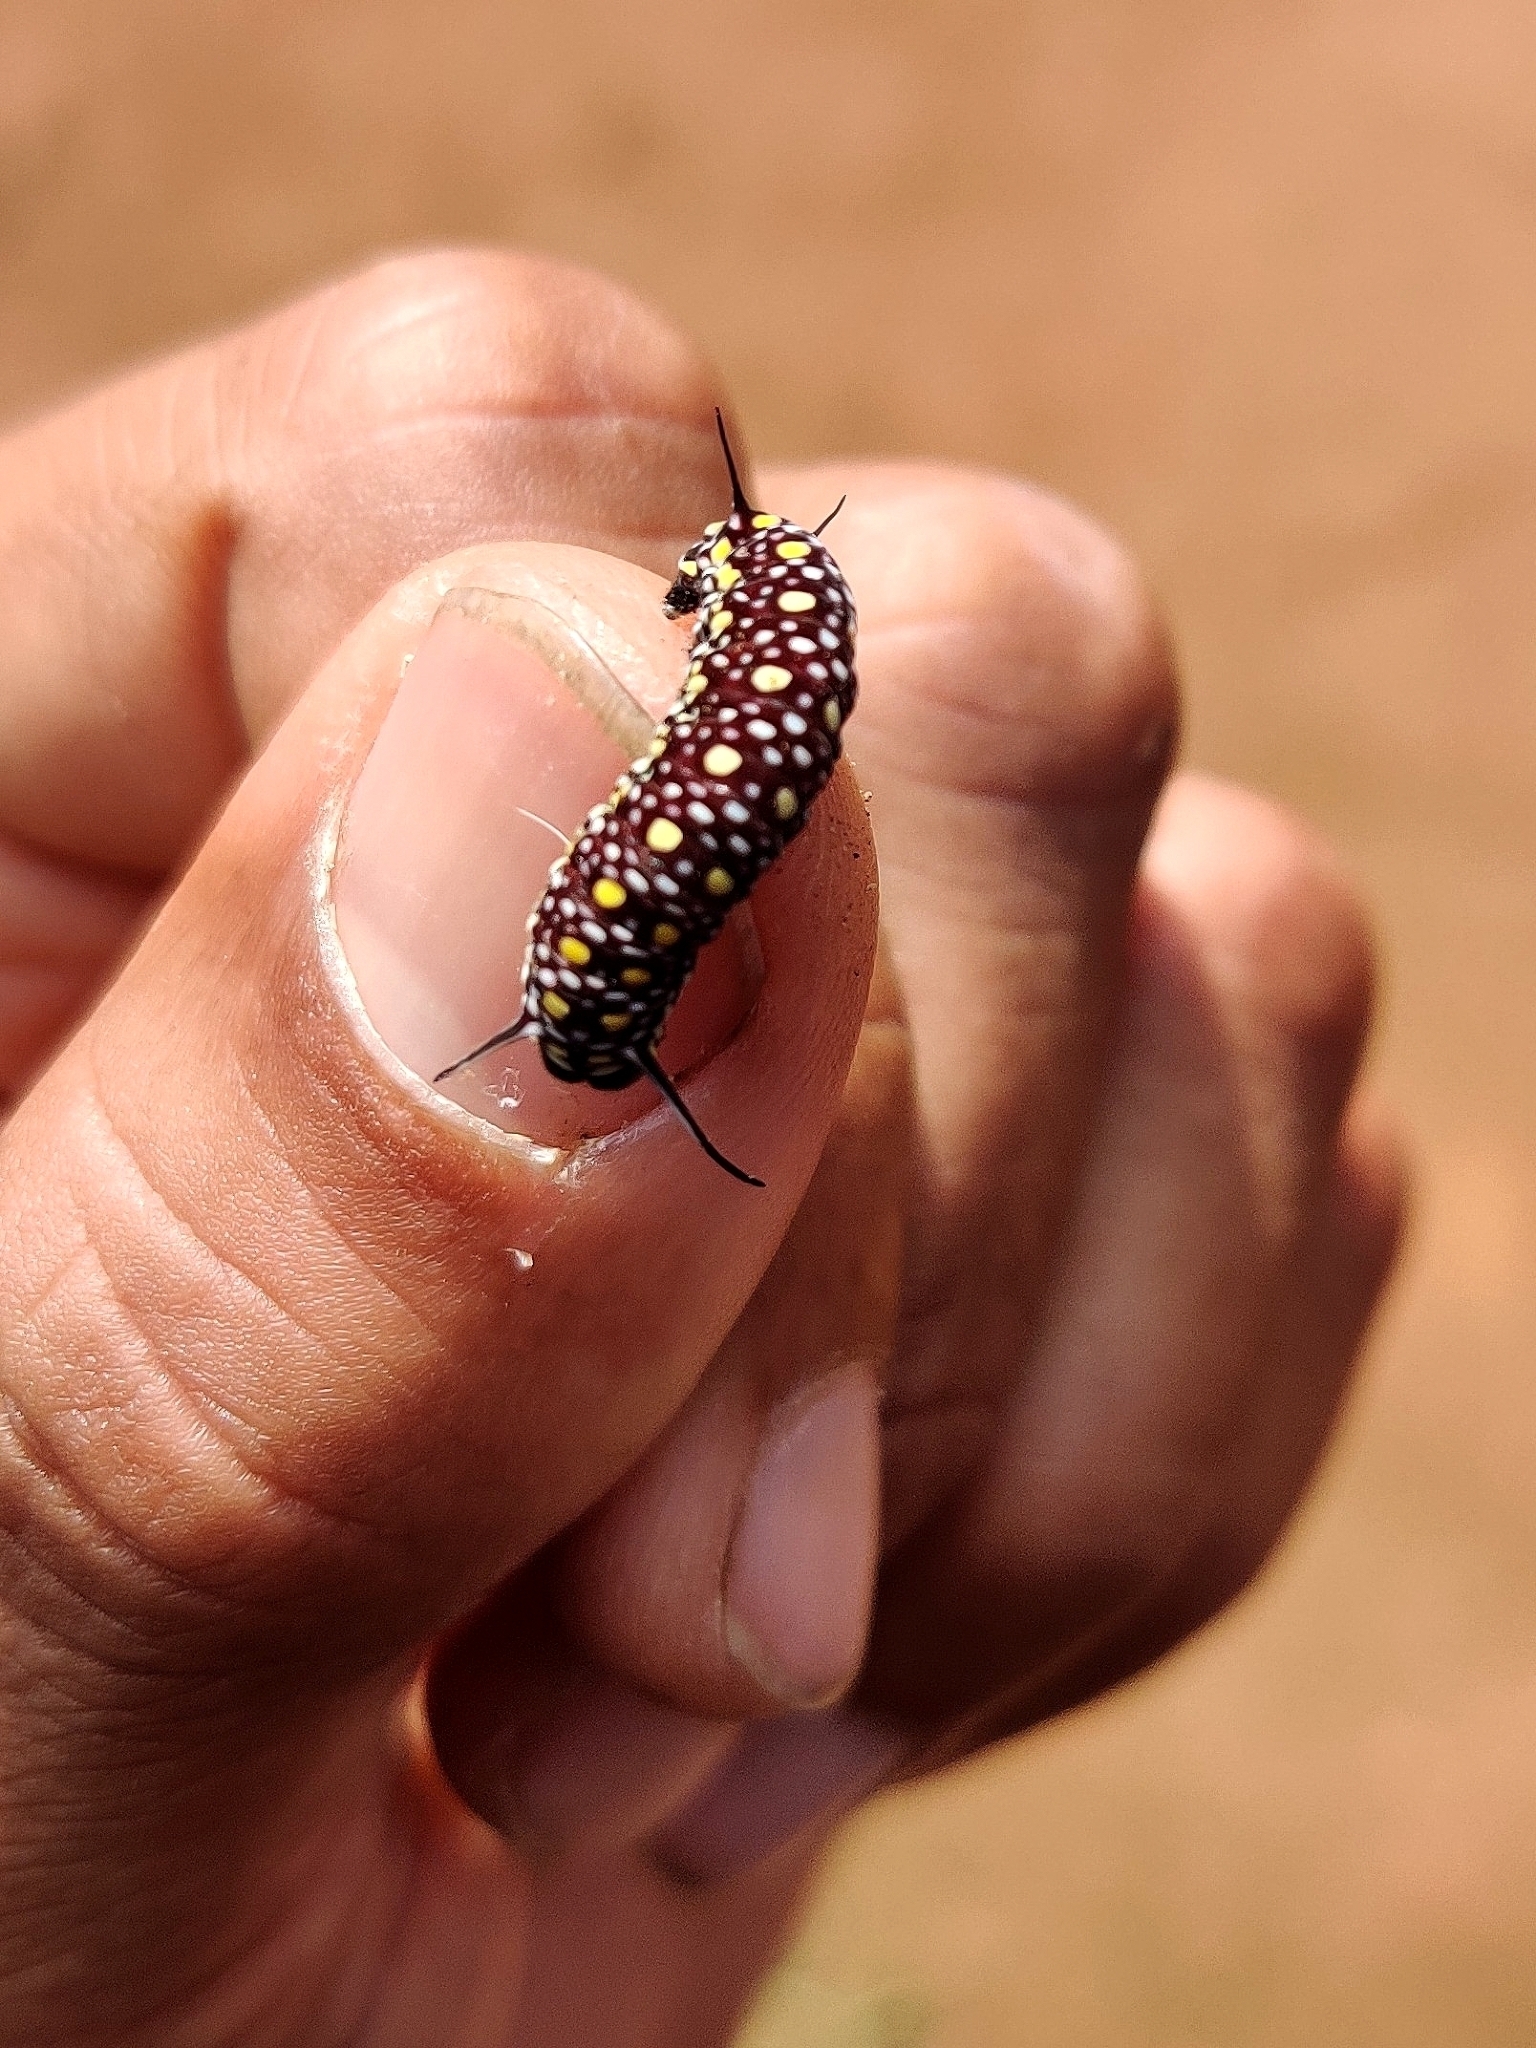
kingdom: Animalia
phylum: Arthropoda
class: Insecta
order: Lepidoptera
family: Nymphalidae
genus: Parantica
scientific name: Parantica aglea
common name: Glassy tiger
